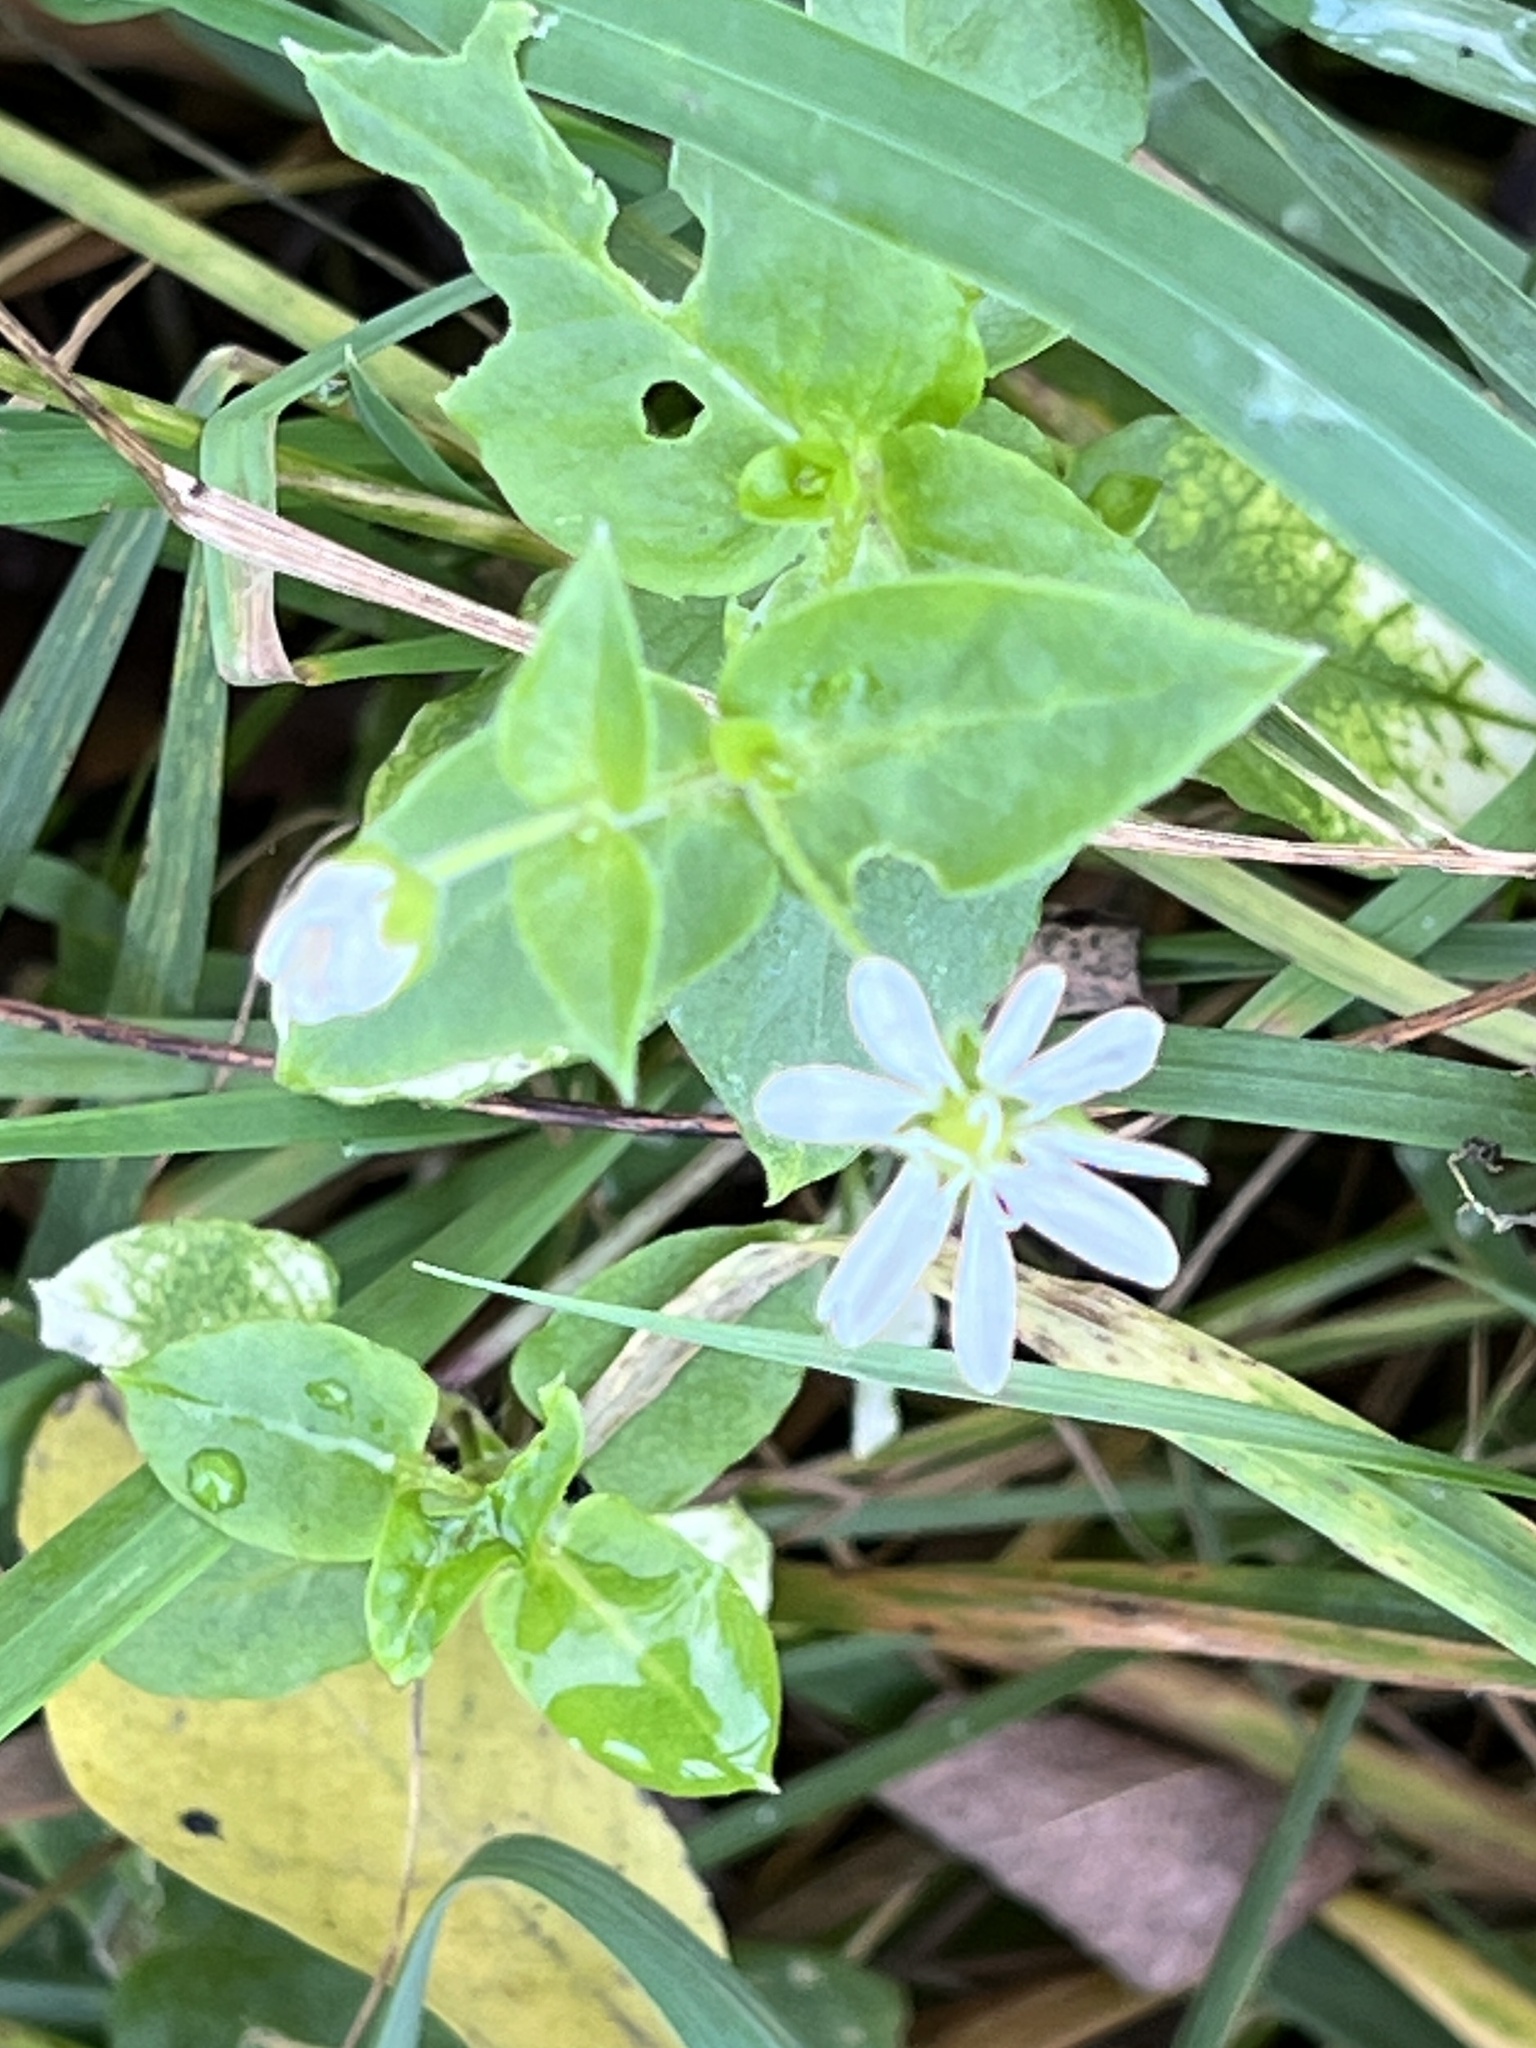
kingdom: Plantae
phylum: Tracheophyta
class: Magnoliopsida
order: Caryophyllales
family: Caryophyllaceae
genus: Stellaria
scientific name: Stellaria aquatica
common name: Water chickweed
